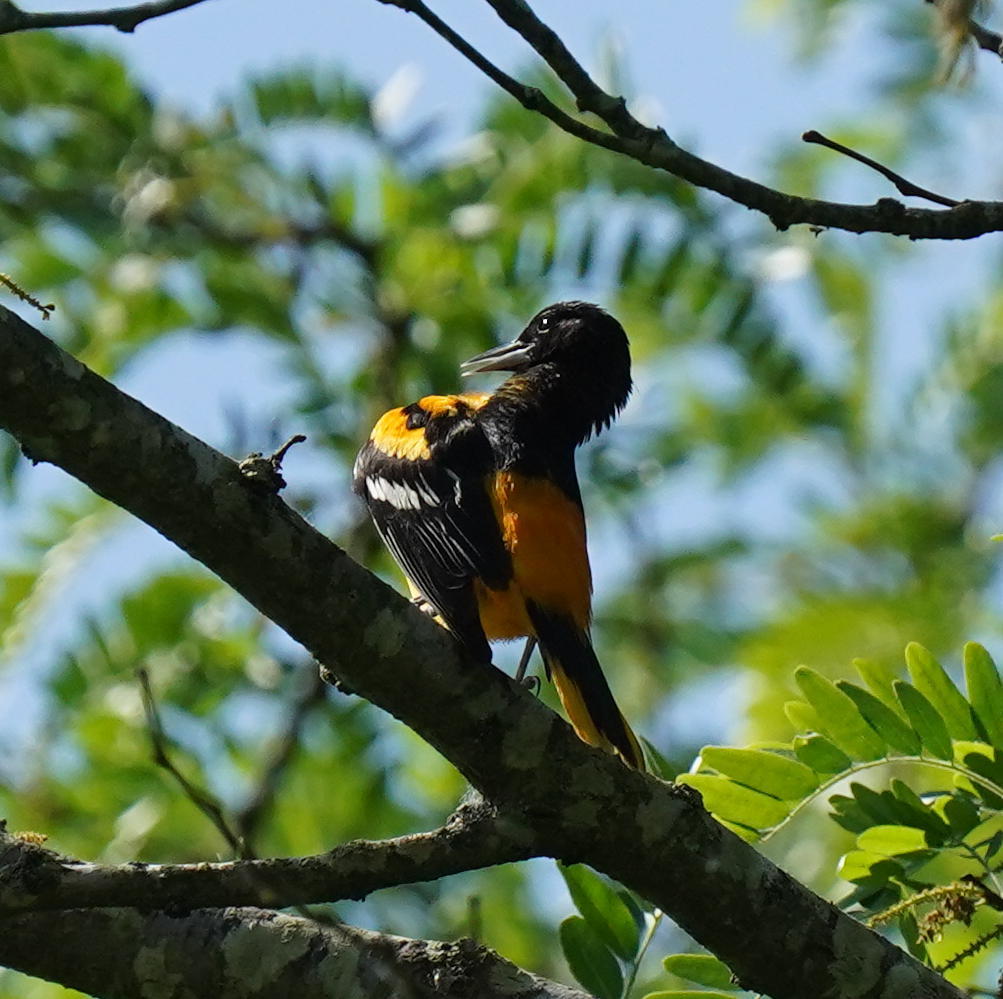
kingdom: Animalia
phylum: Chordata
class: Aves
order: Passeriformes
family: Icteridae
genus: Icterus
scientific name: Icterus galbula
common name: Baltimore oriole
